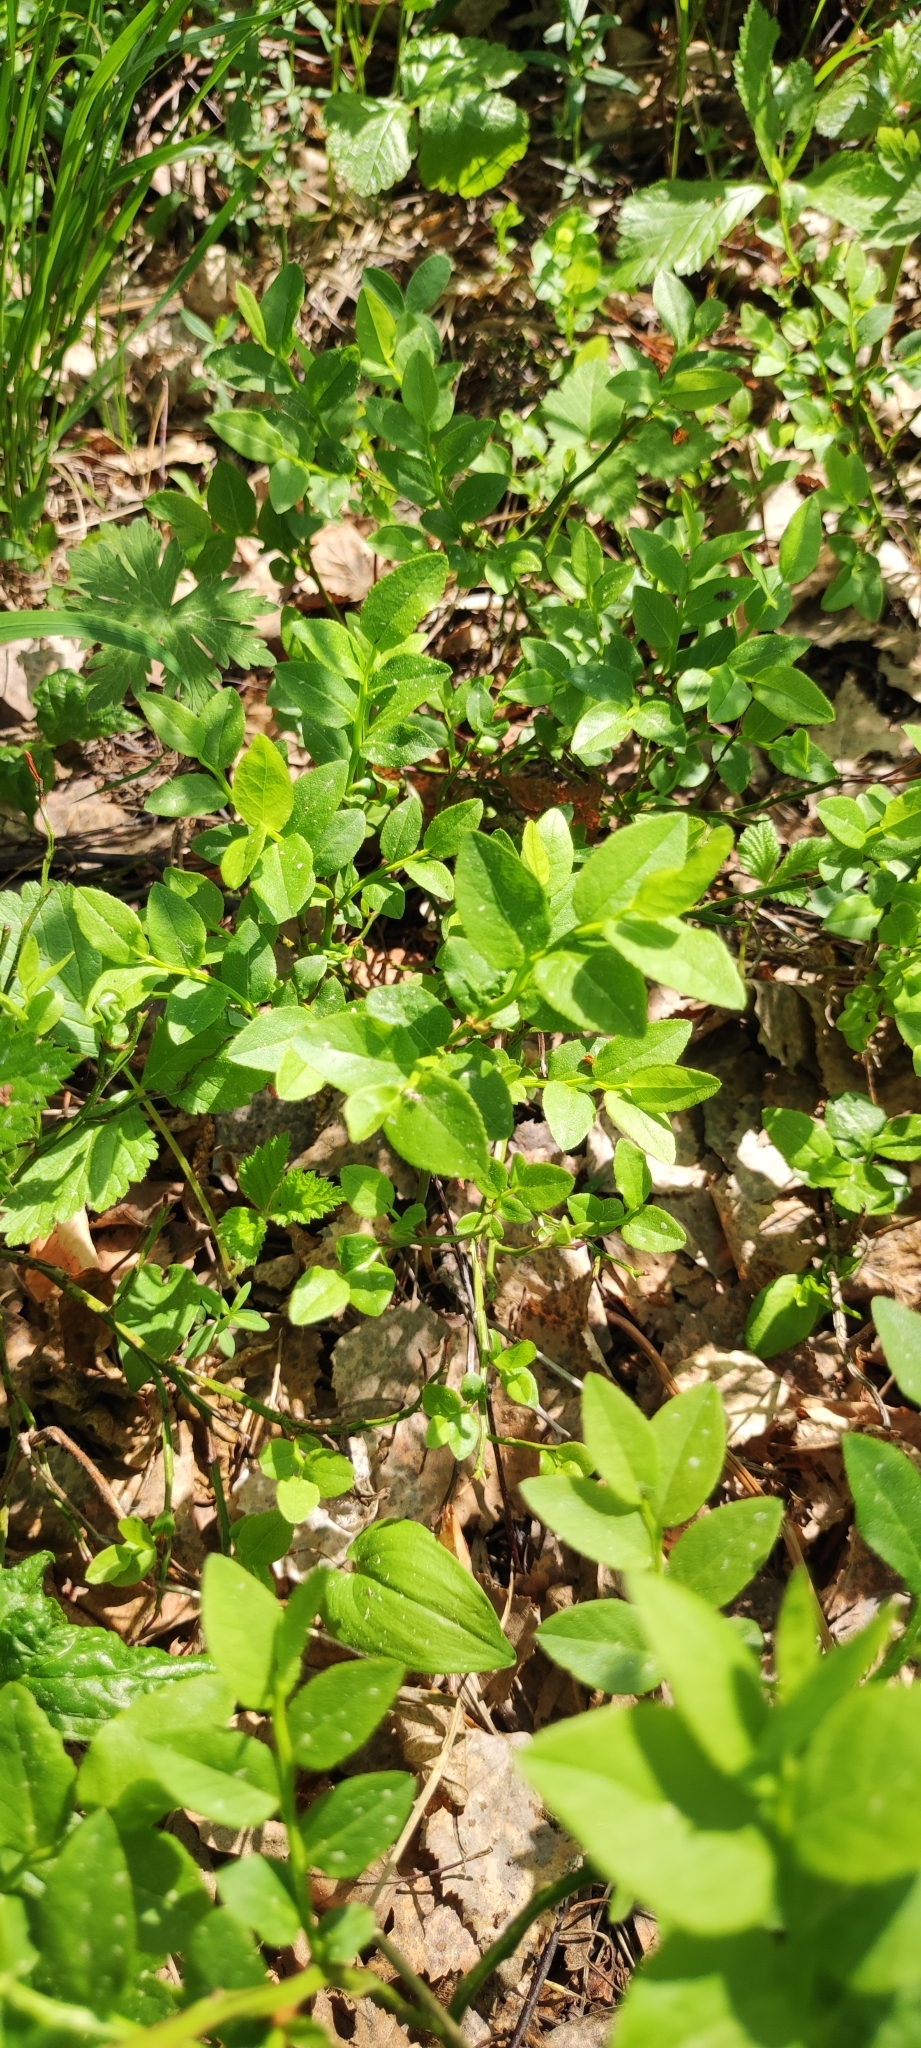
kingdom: Plantae
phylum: Tracheophyta
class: Magnoliopsida
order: Ericales
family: Ericaceae
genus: Vaccinium
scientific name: Vaccinium myrtillus
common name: Bilberry
